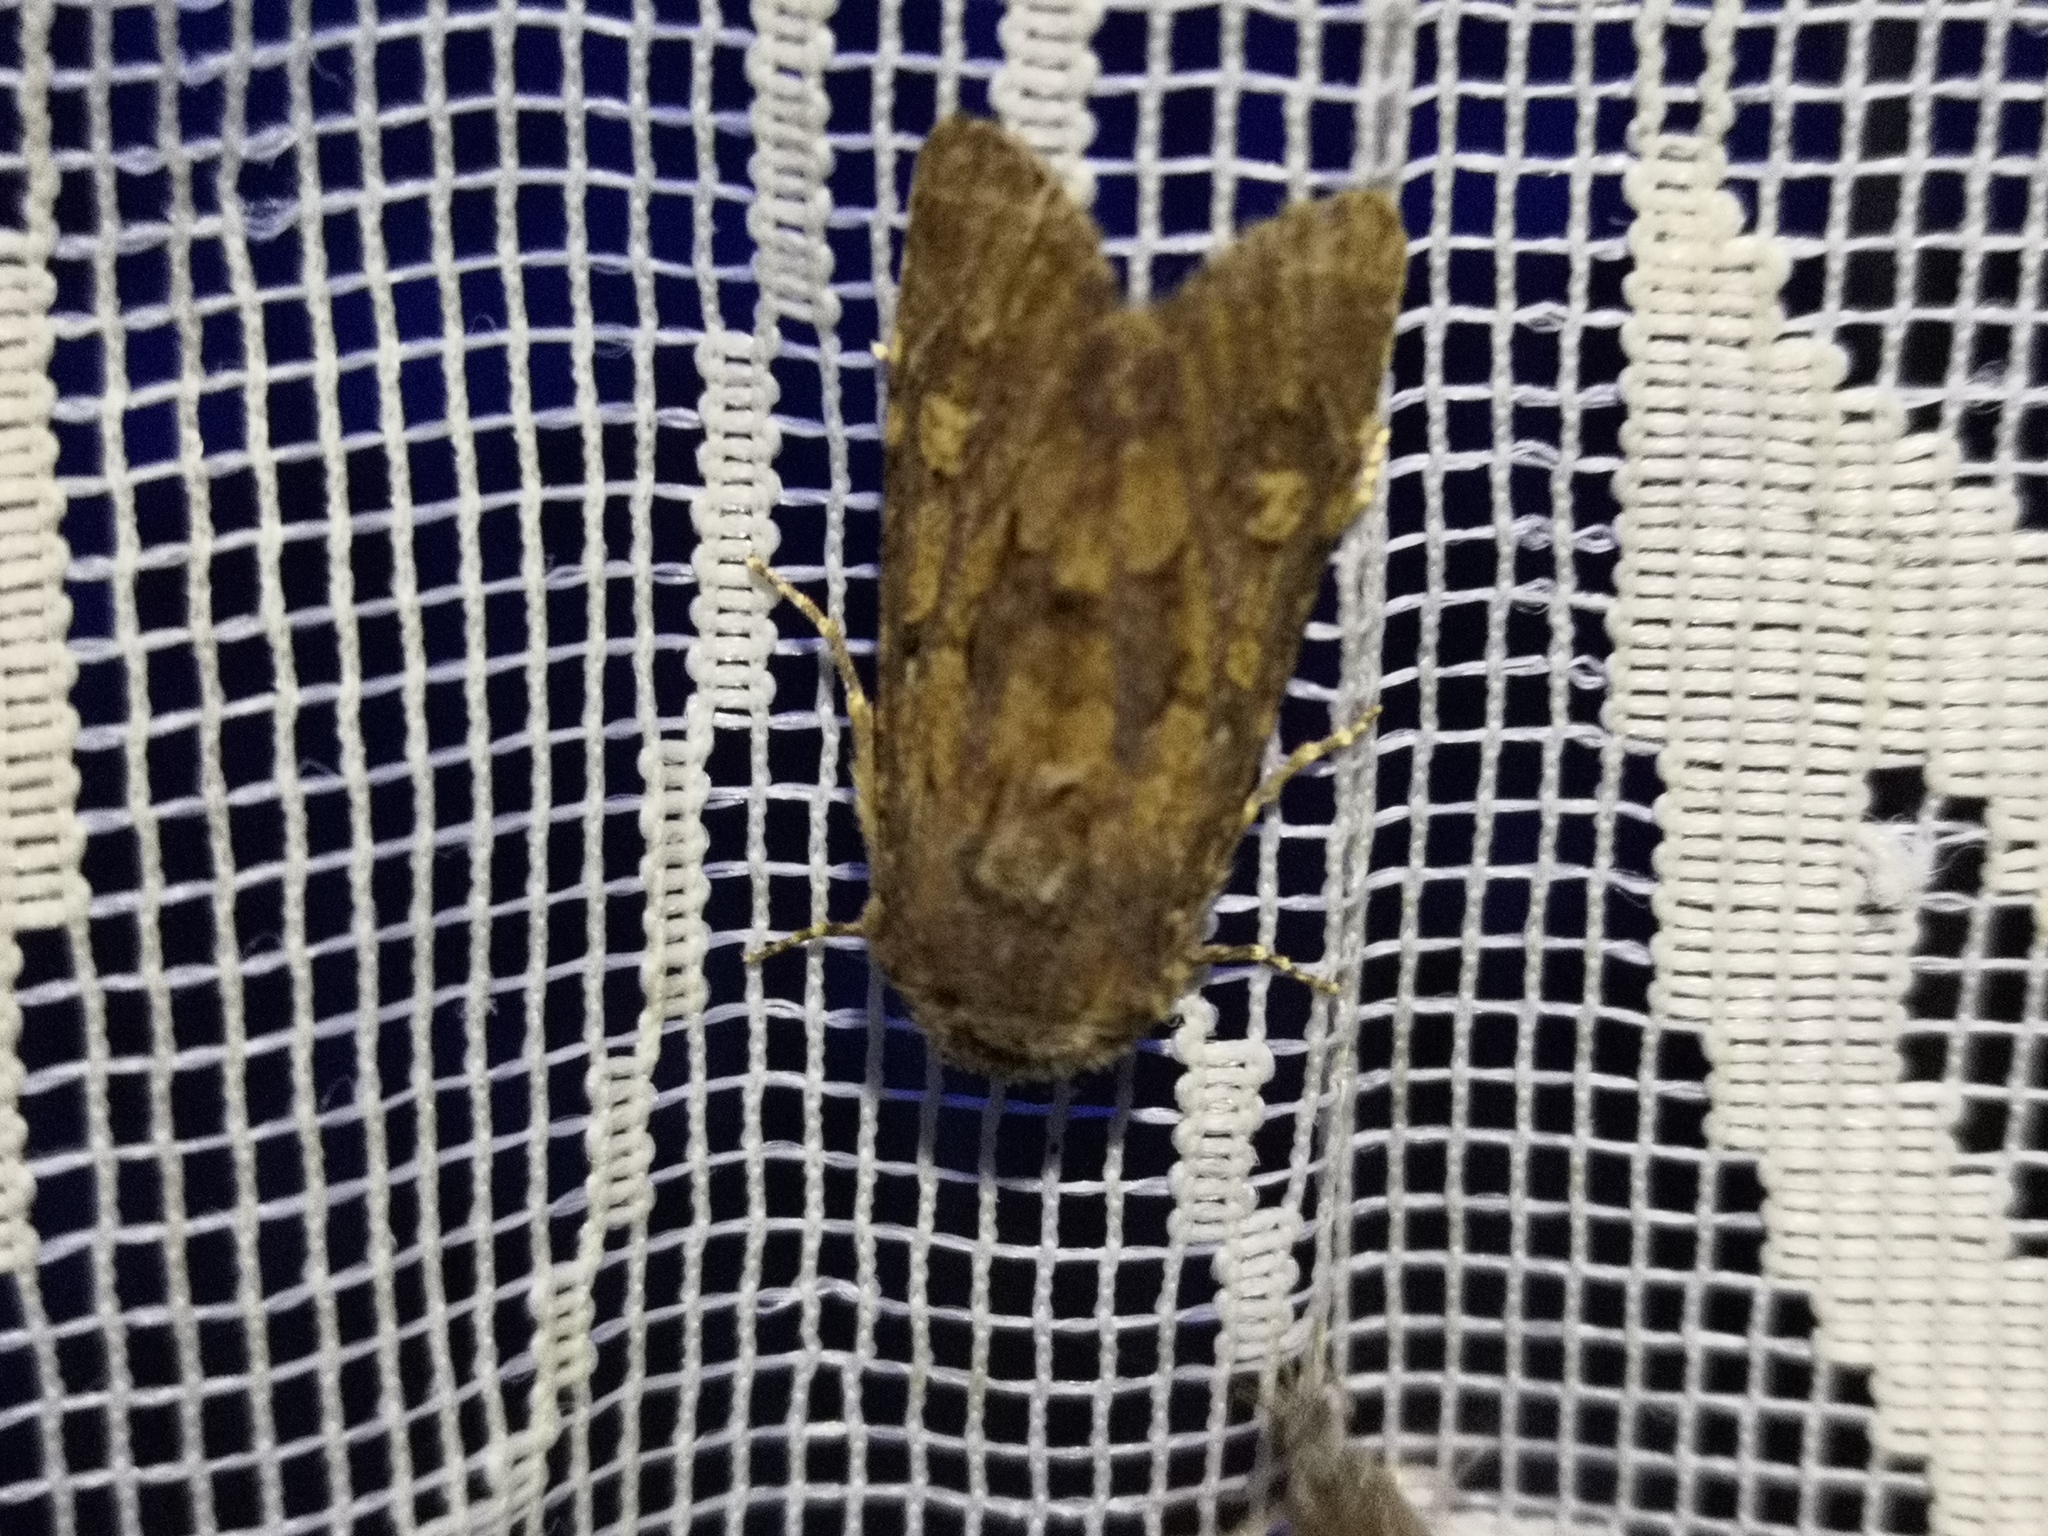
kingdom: Animalia
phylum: Arthropoda
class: Insecta
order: Lepidoptera
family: Noctuidae
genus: Luperina
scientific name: Luperina testacea
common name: Flounced rustic
